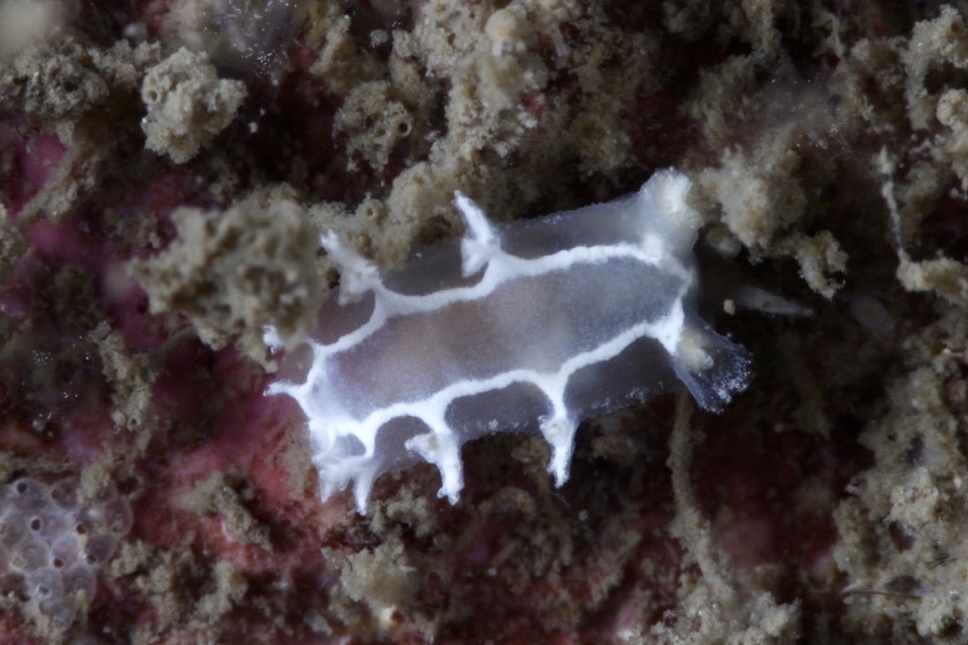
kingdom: Animalia
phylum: Mollusca
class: Gastropoda
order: Nudibranchia
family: Tritoniidae
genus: Duvaucelia
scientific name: Duvaucelia lineata
